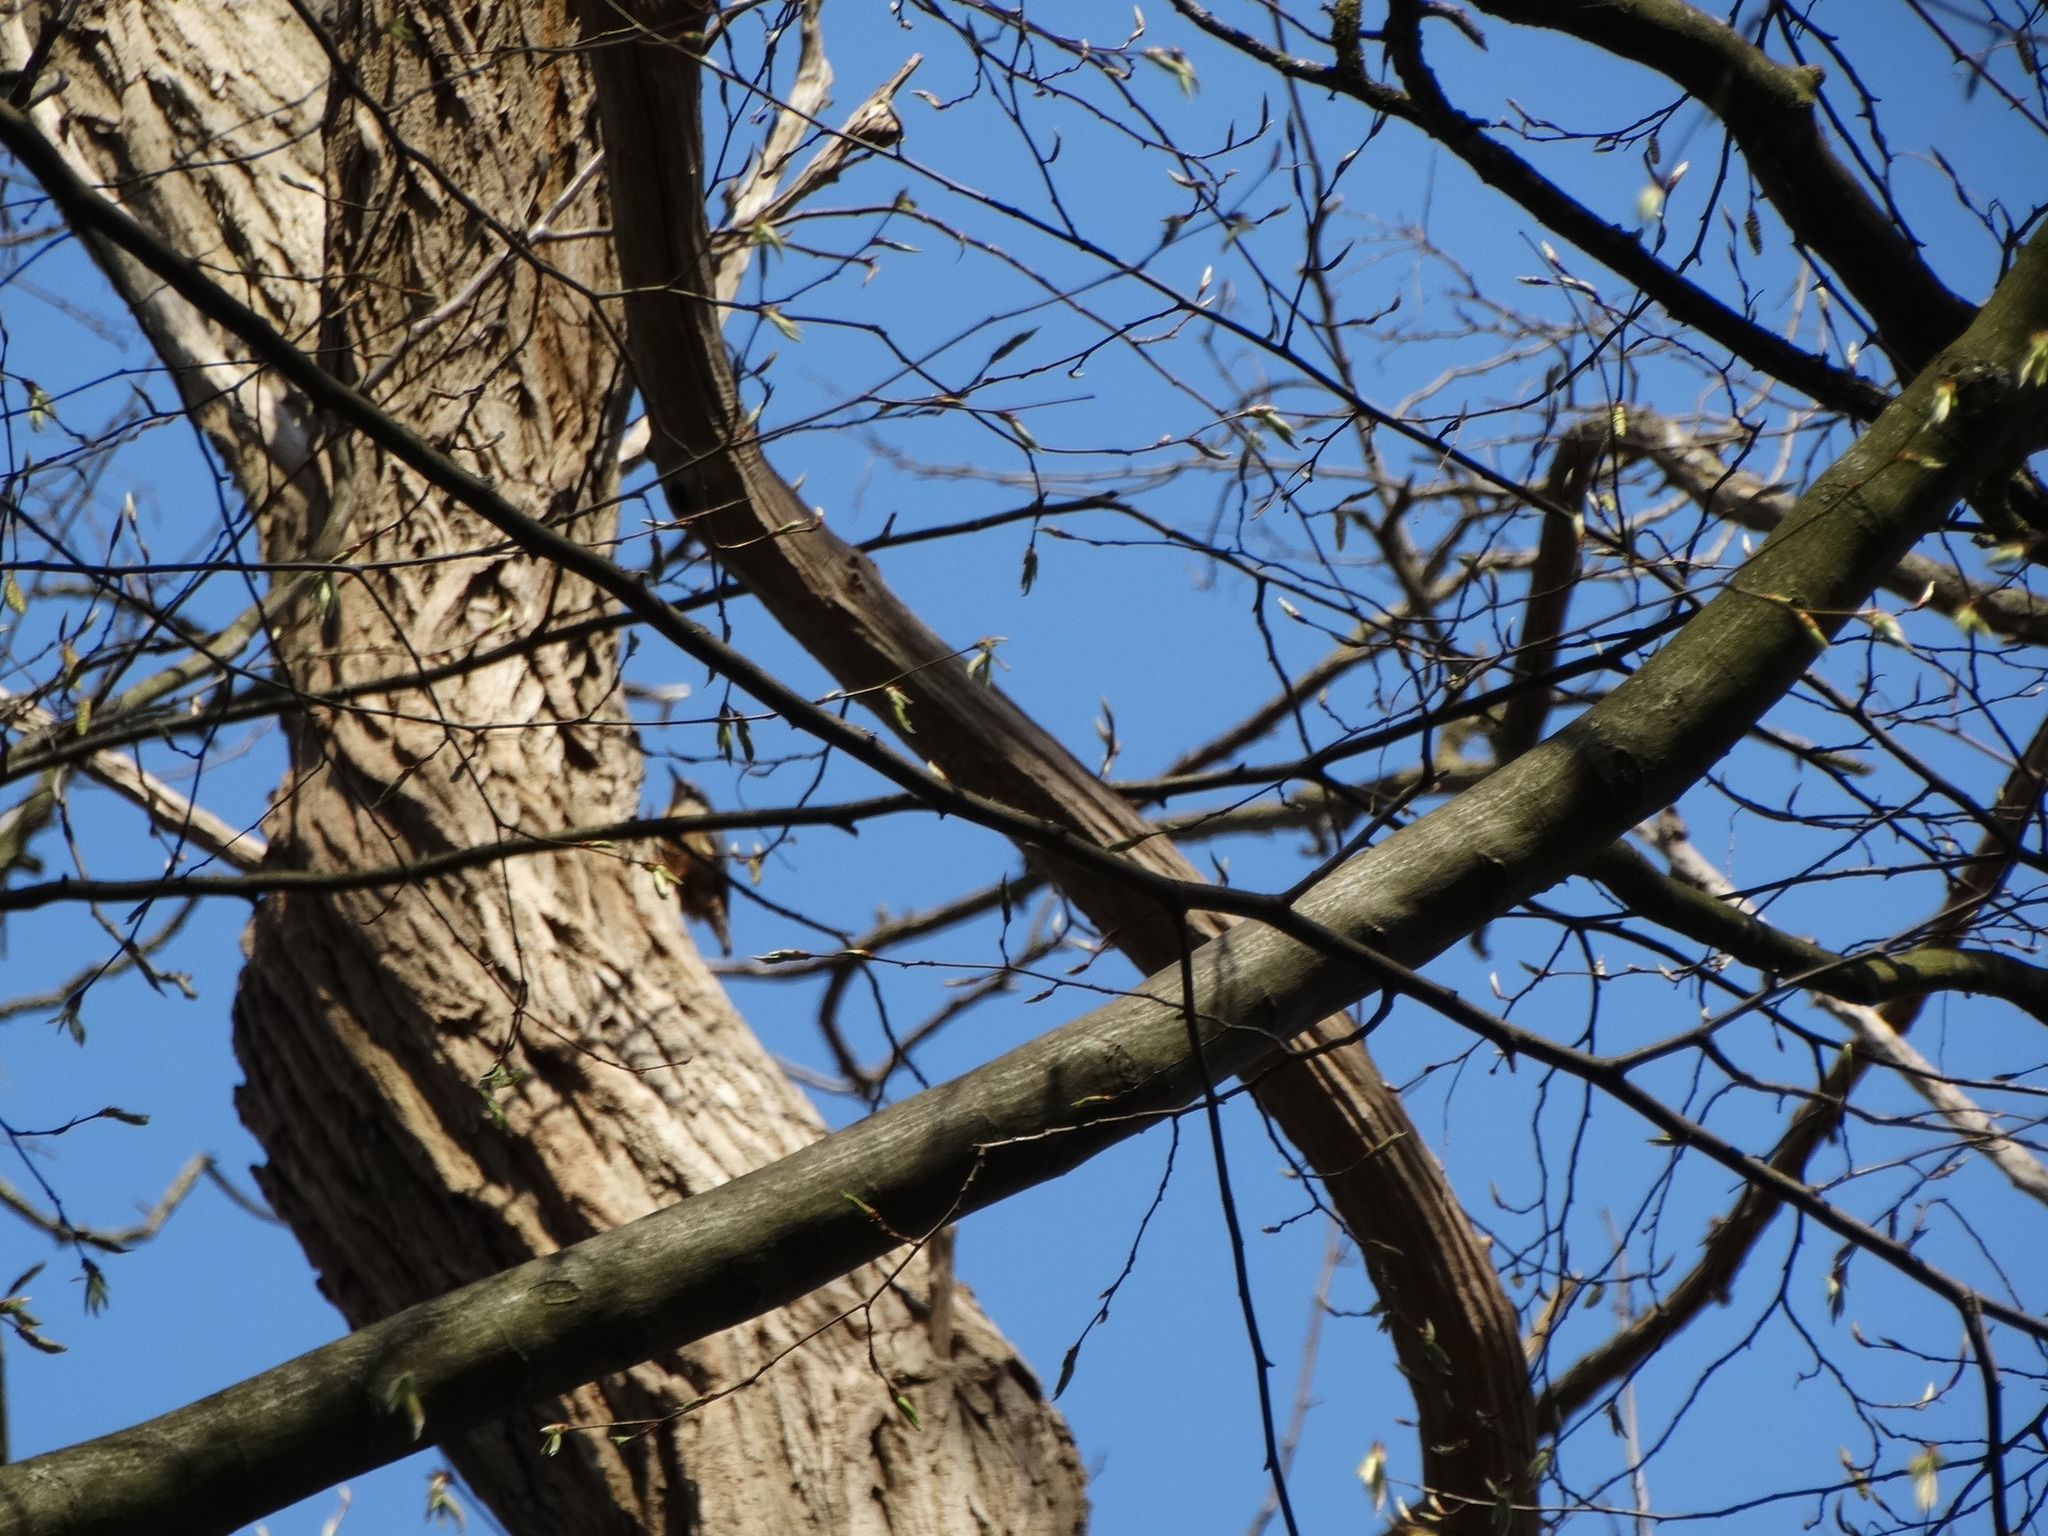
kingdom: Animalia
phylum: Chordata
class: Aves
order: Passeriformes
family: Sittidae
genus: Sitta
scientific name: Sitta europaea
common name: Eurasian nuthatch
